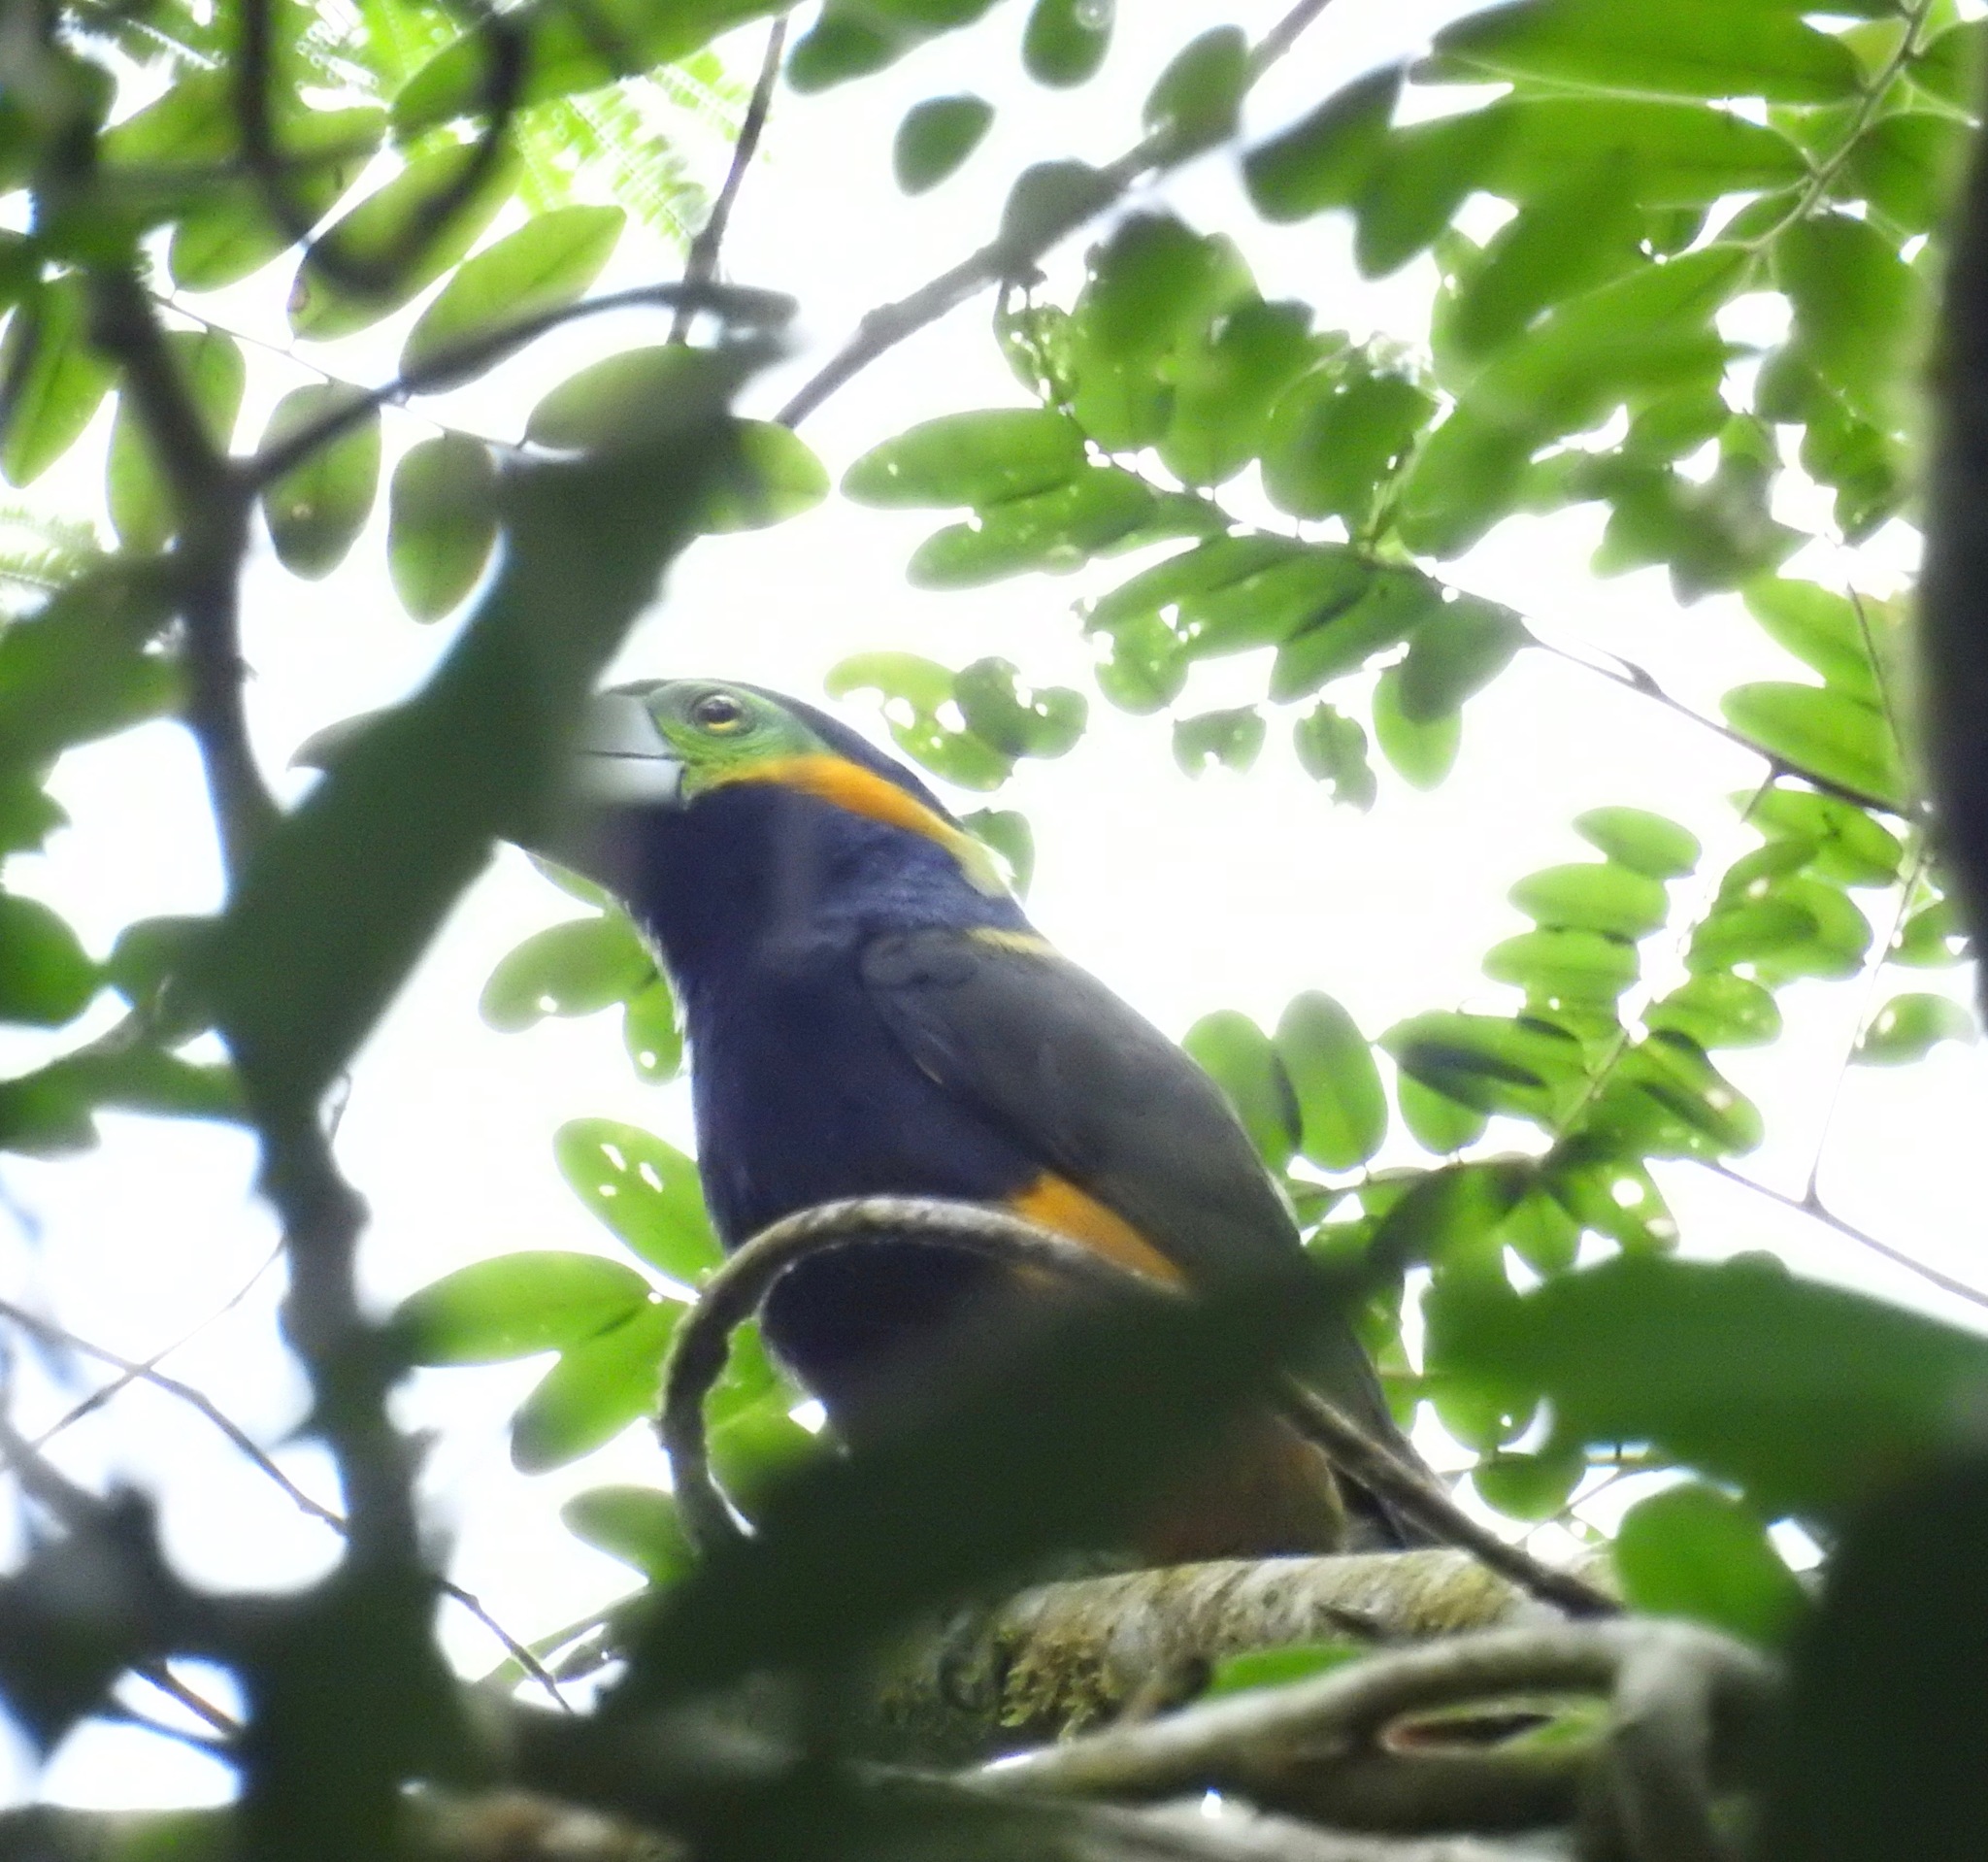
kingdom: Animalia
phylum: Chordata
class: Aves
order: Piciformes
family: Ramphastidae
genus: Selenidera
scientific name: Selenidera maculirostris
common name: Spot-billed toucanet
